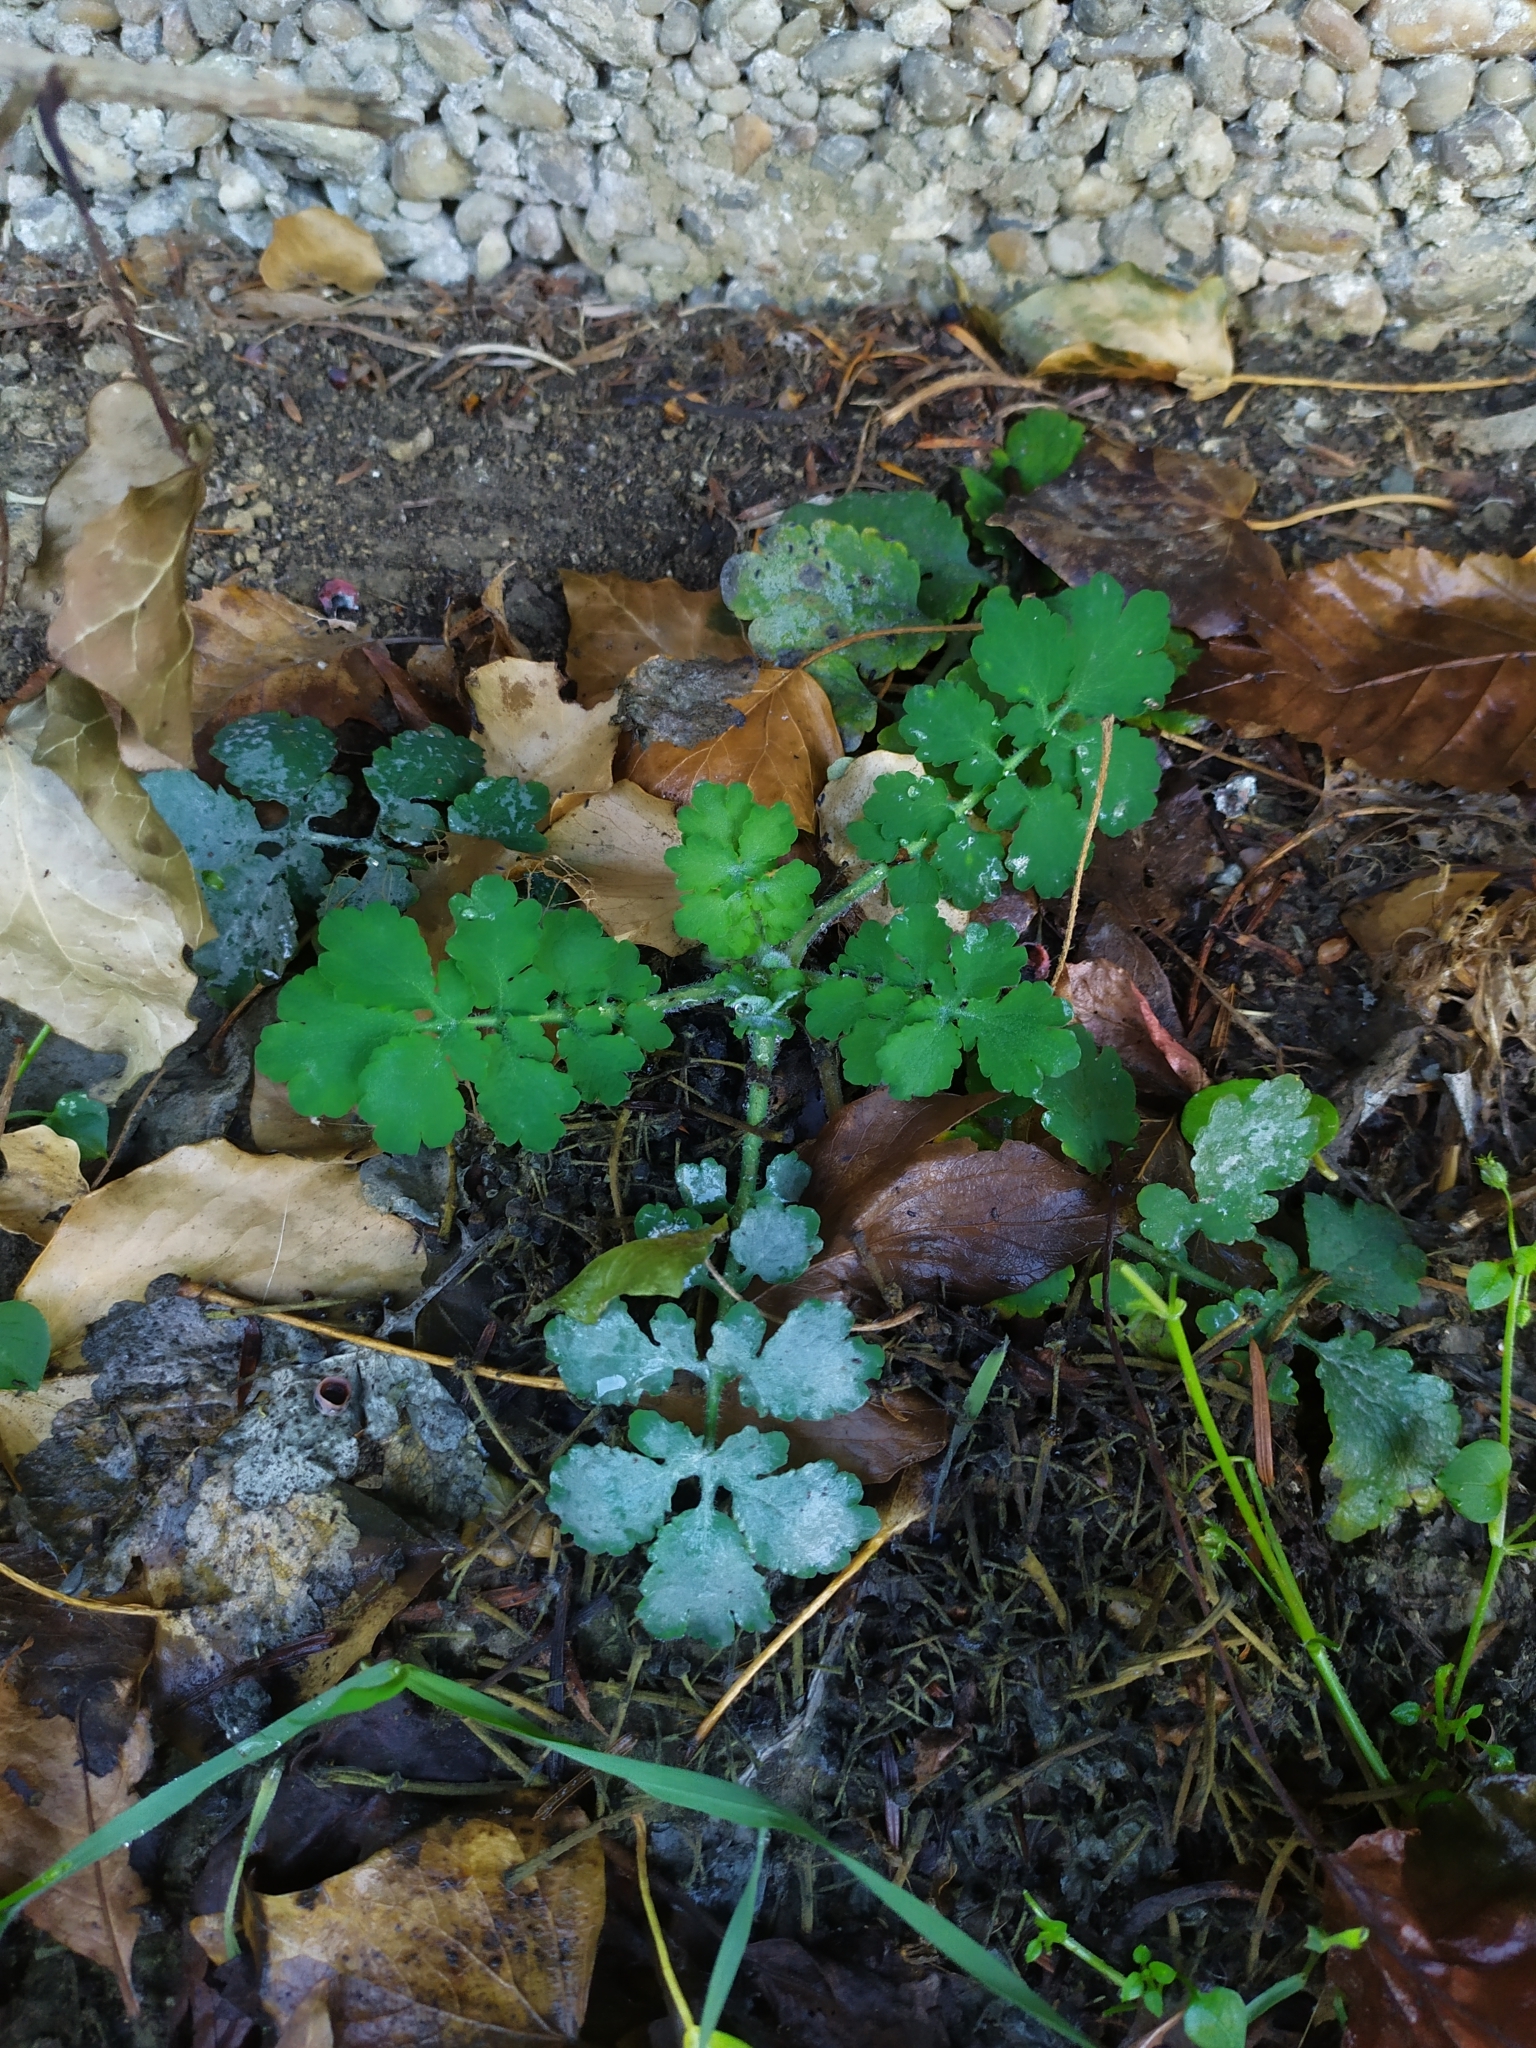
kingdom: Fungi
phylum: Ascomycota
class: Leotiomycetes
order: Helotiales
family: Erysiphaceae
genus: Erysiphe
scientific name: Erysiphe macleayae
